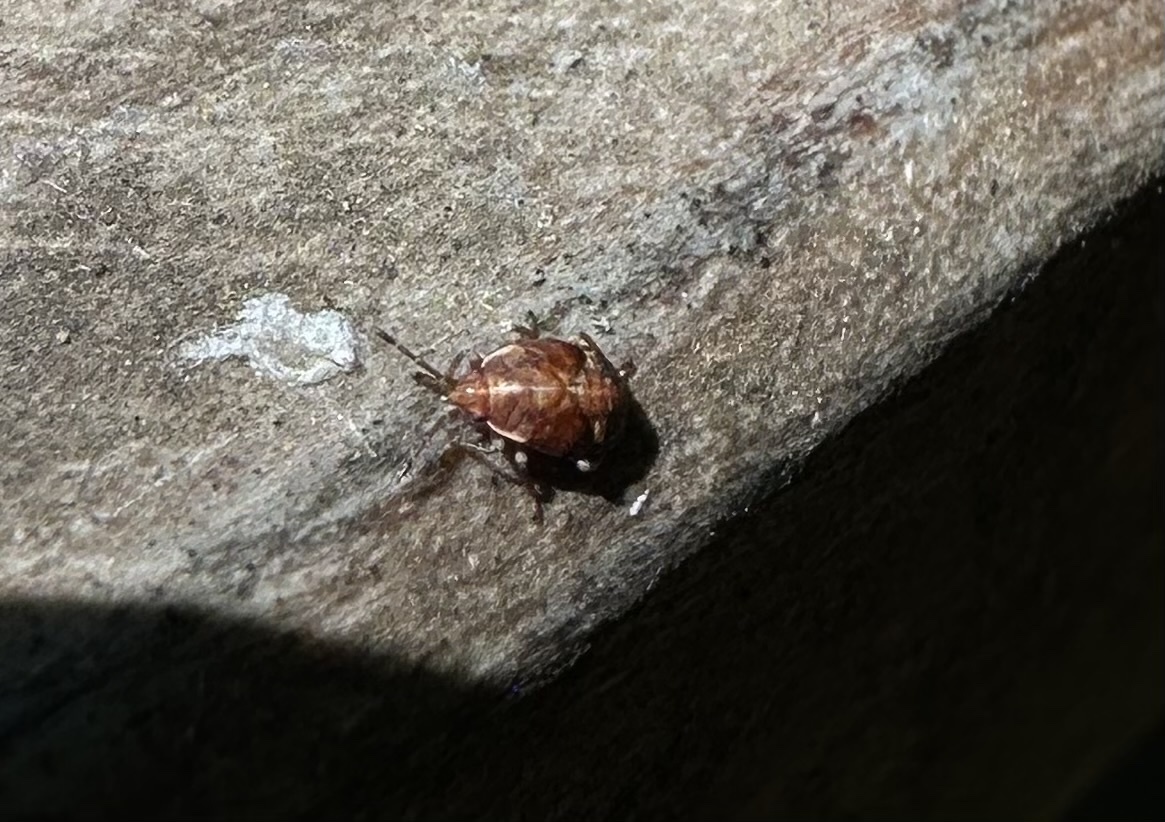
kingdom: Animalia
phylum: Arthropoda
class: Insecta
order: Hemiptera
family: Lygaeidae
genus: Syzygitis
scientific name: Syzygitis poecilus
